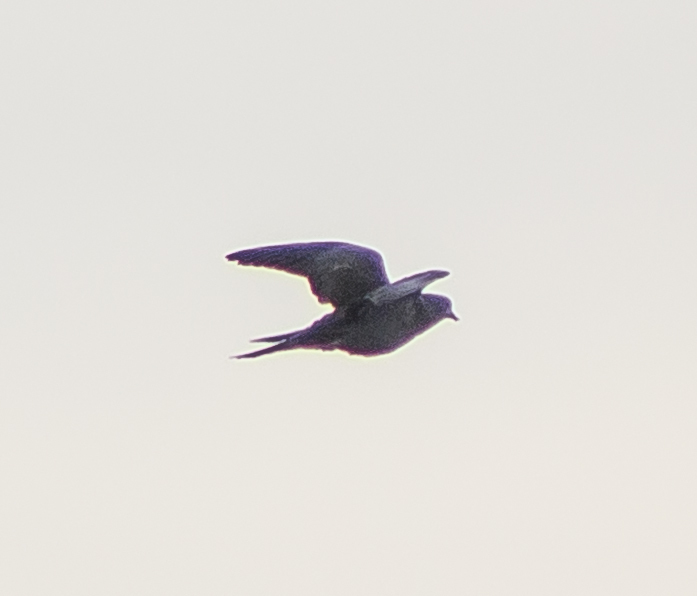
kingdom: Animalia
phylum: Chordata
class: Aves
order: Columbiformes
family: Columbidae
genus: Zenaida
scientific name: Zenaida macroura
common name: Mourning dove
